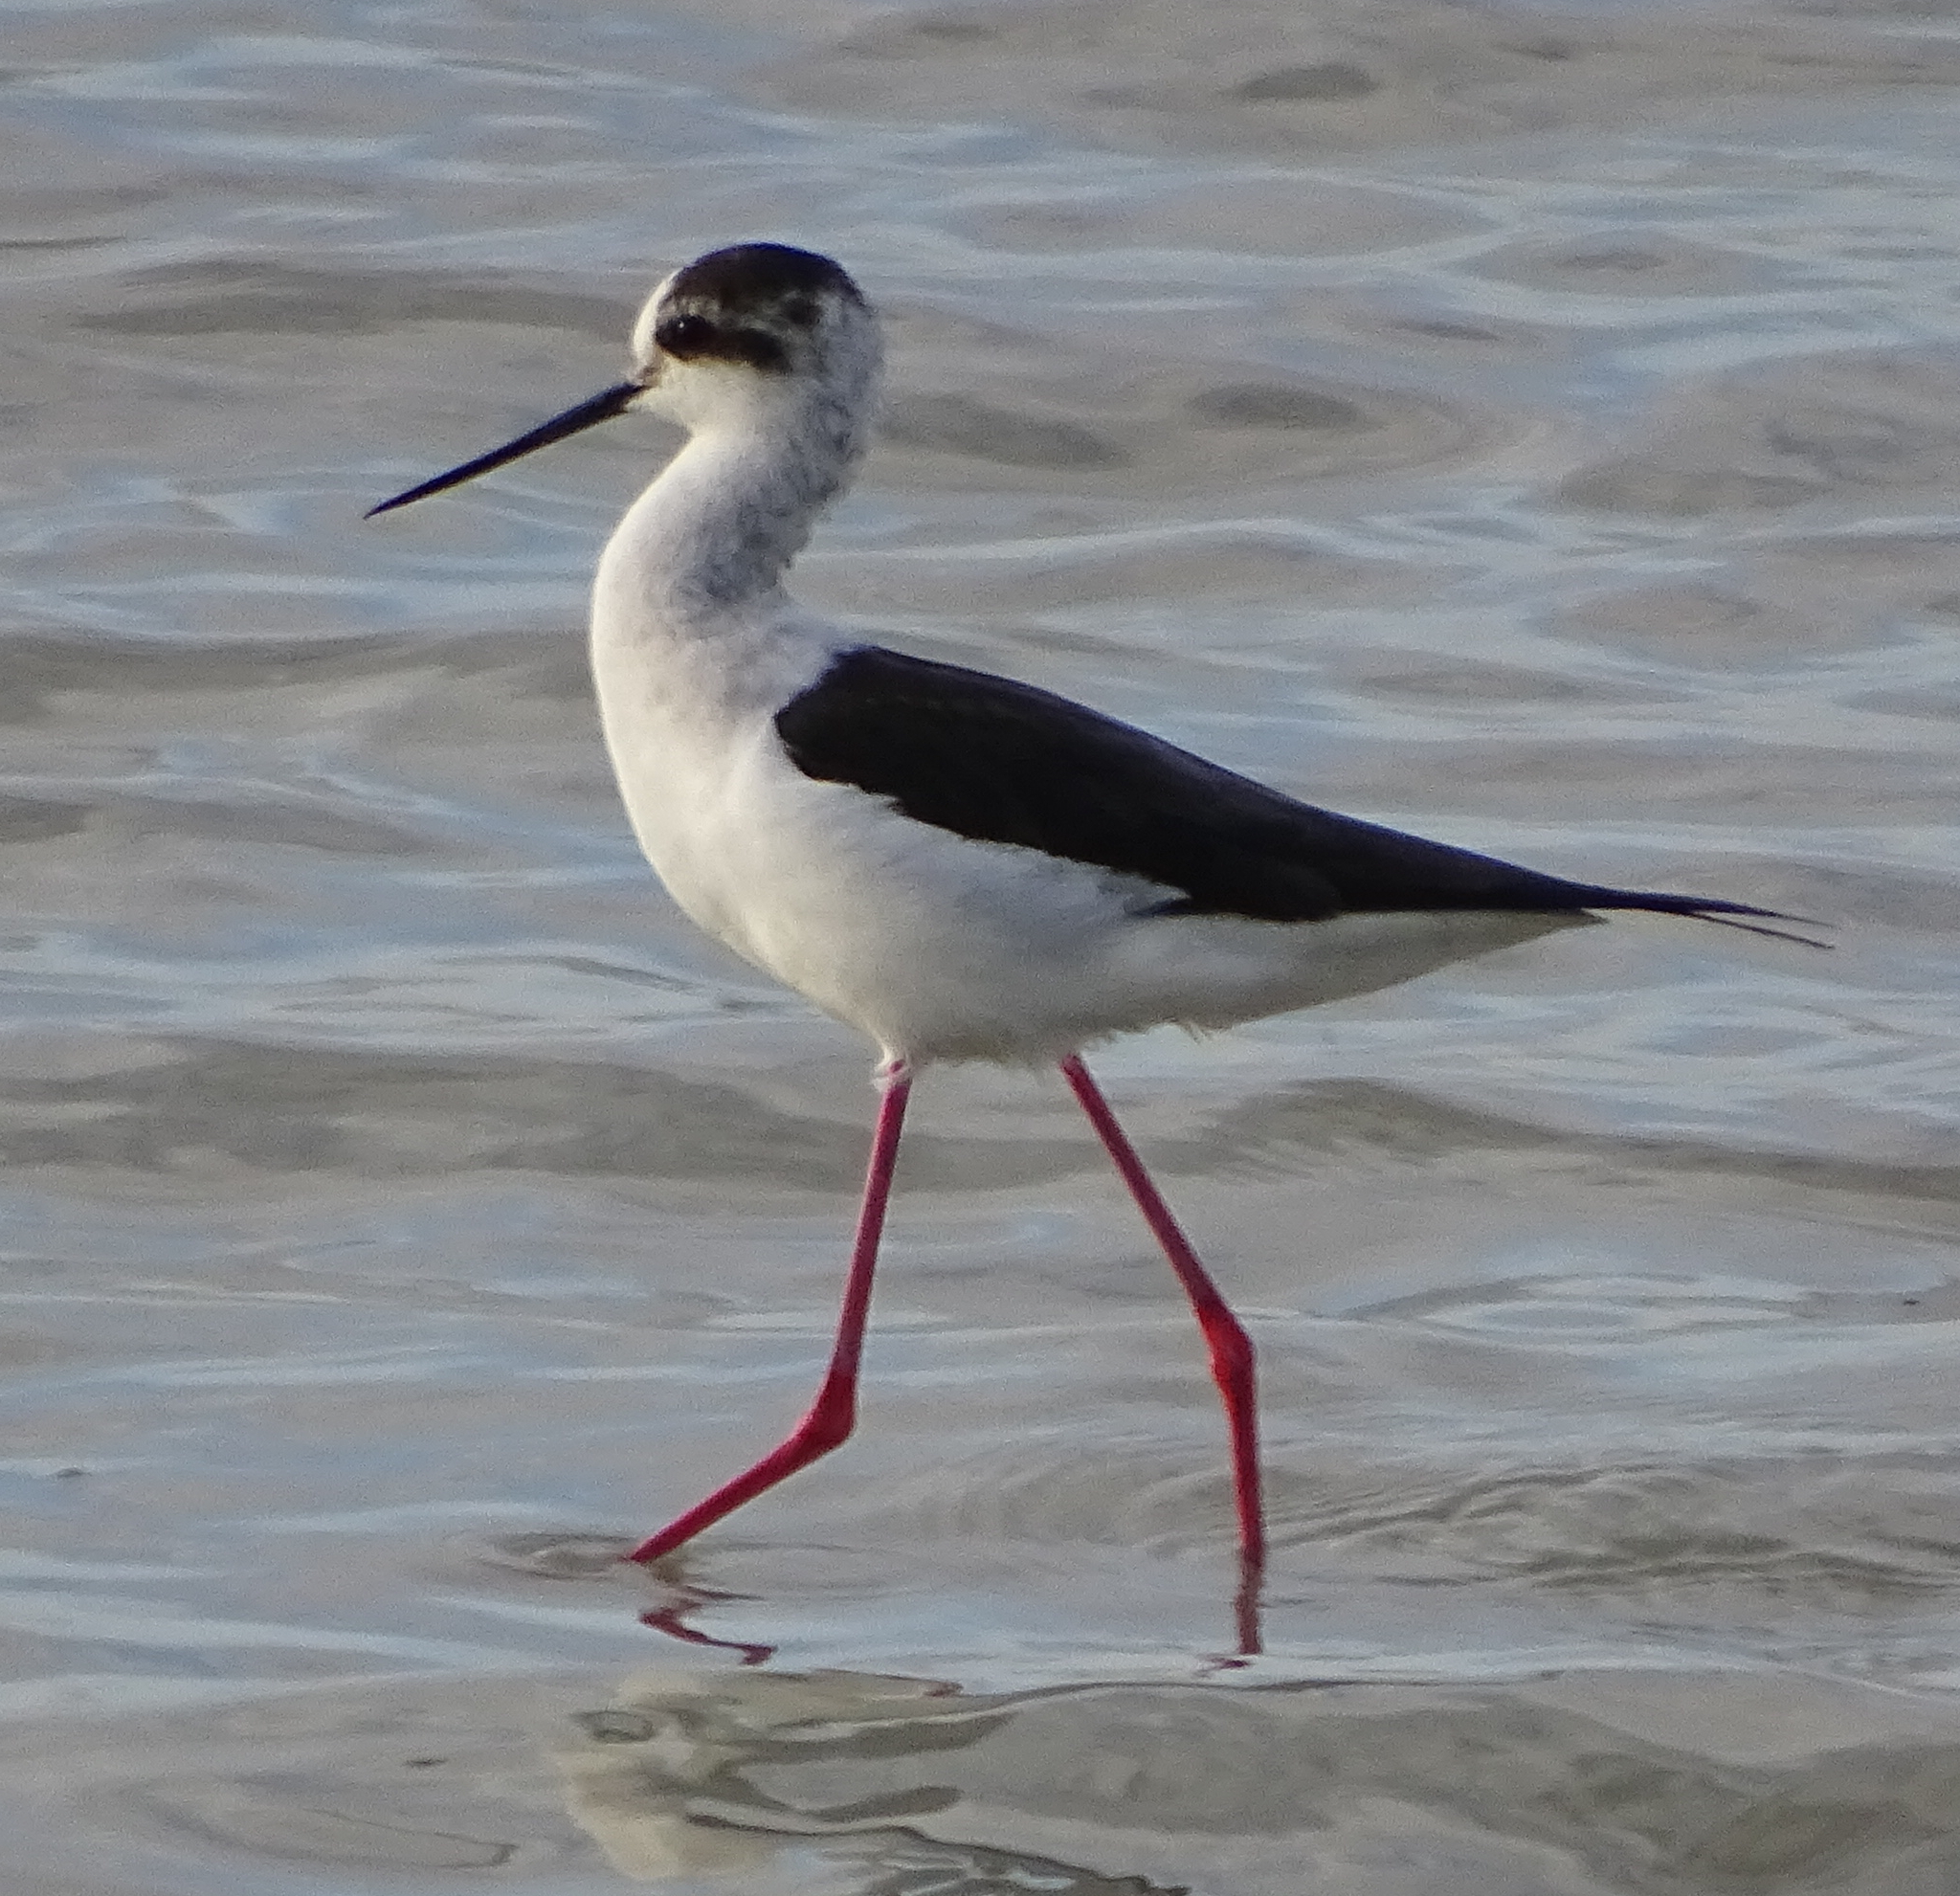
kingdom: Animalia
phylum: Chordata
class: Aves
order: Charadriiformes
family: Recurvirostridae
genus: Himantopus
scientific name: Himantopus himantopus
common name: Black-winged stilt
